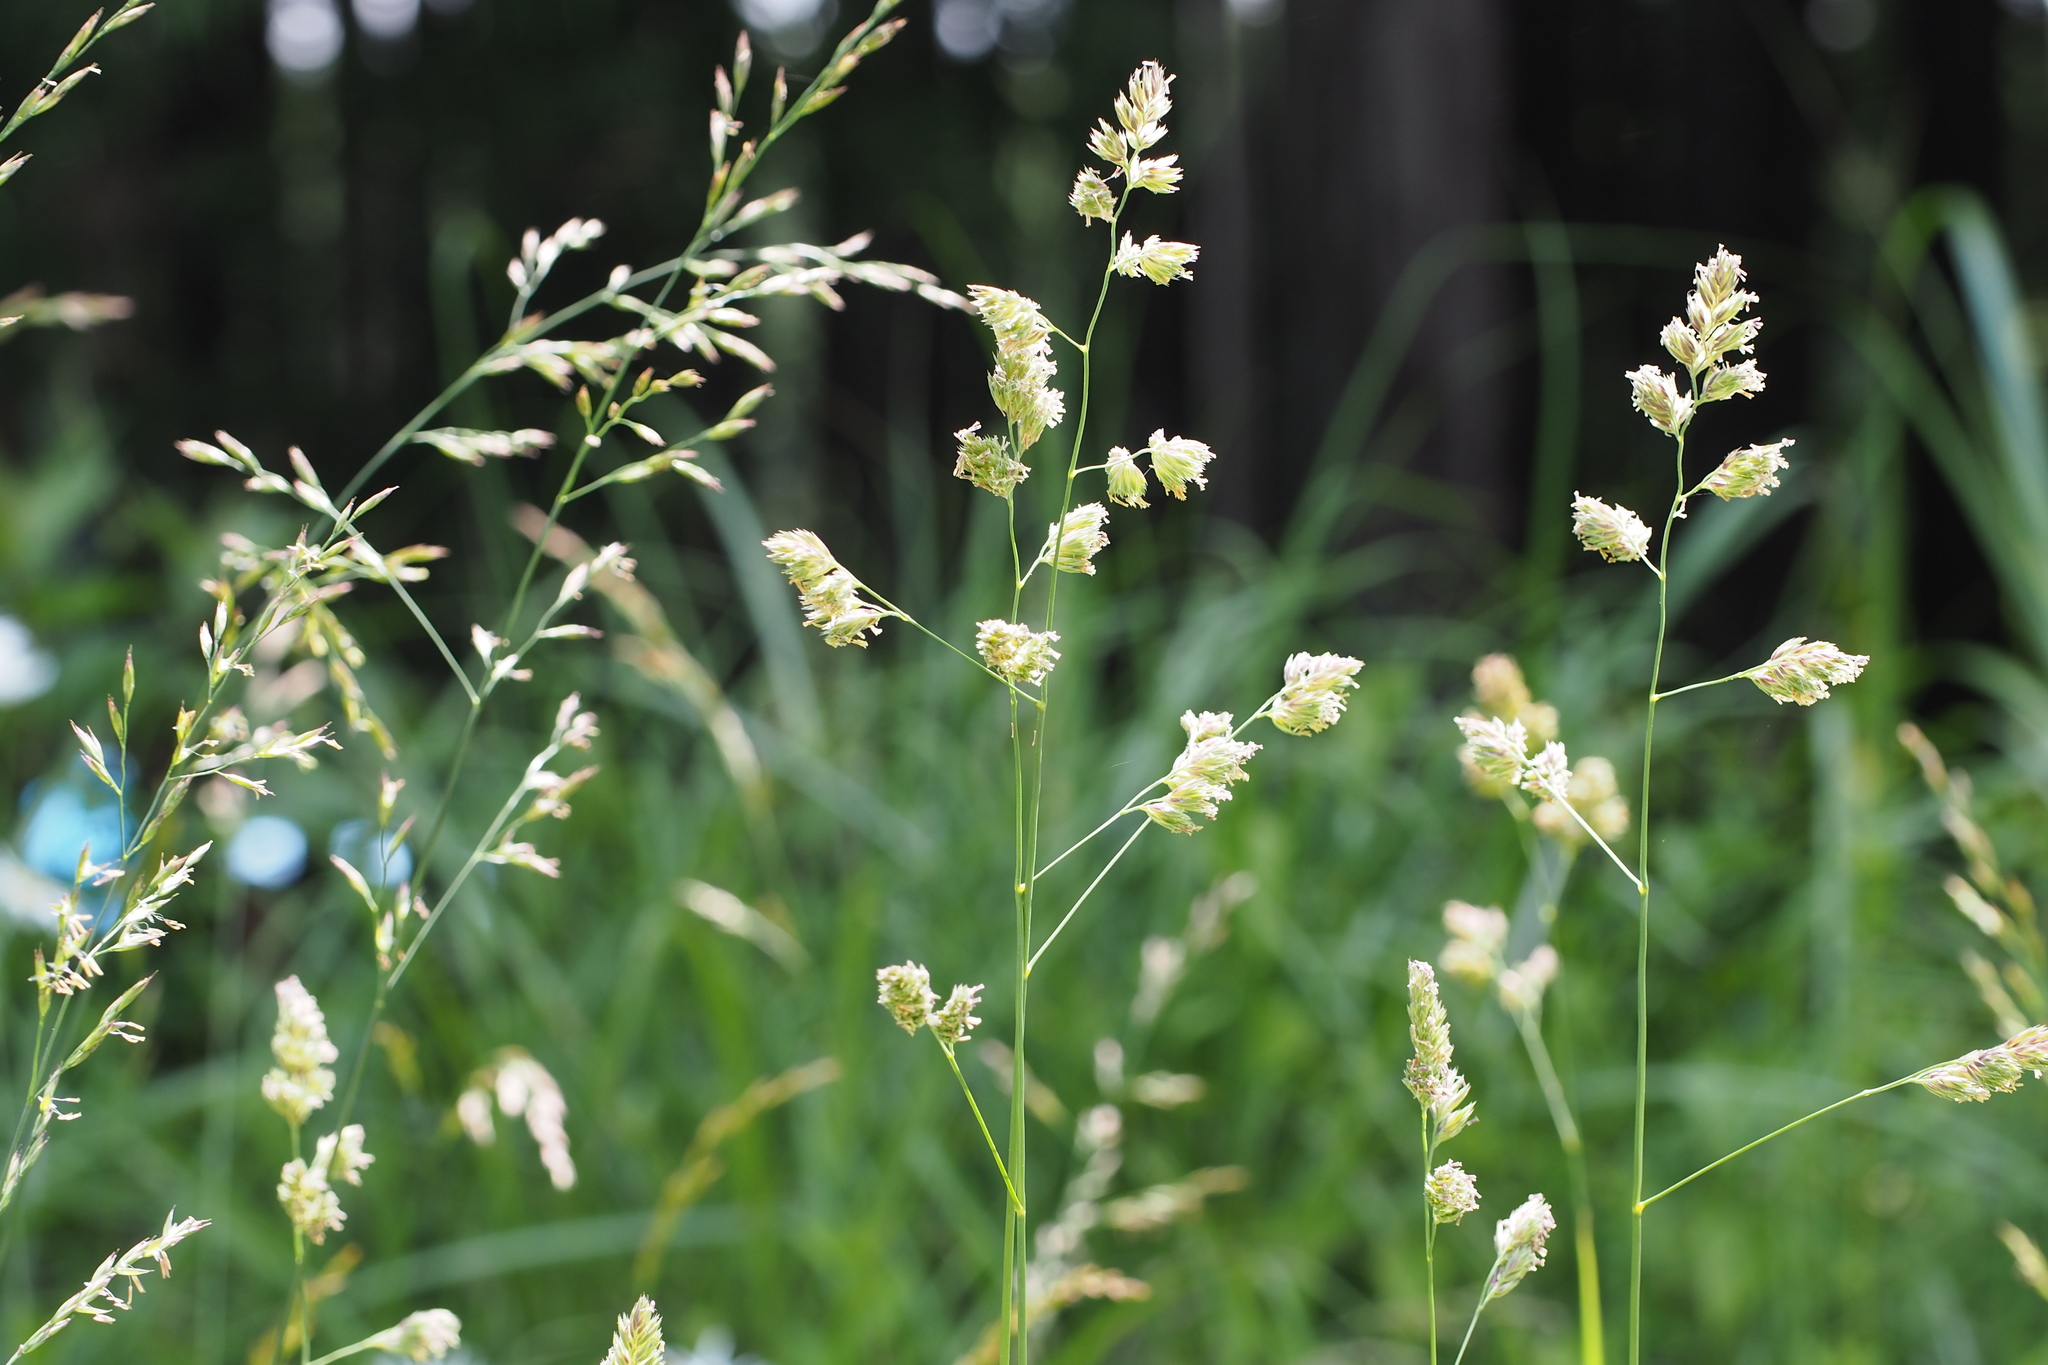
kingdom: Plantae
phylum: Tracheophyta
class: Liliopsida
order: Poales
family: Poaceae
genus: Dactylis
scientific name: Dactylis glomerata
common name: Orchardgrass
